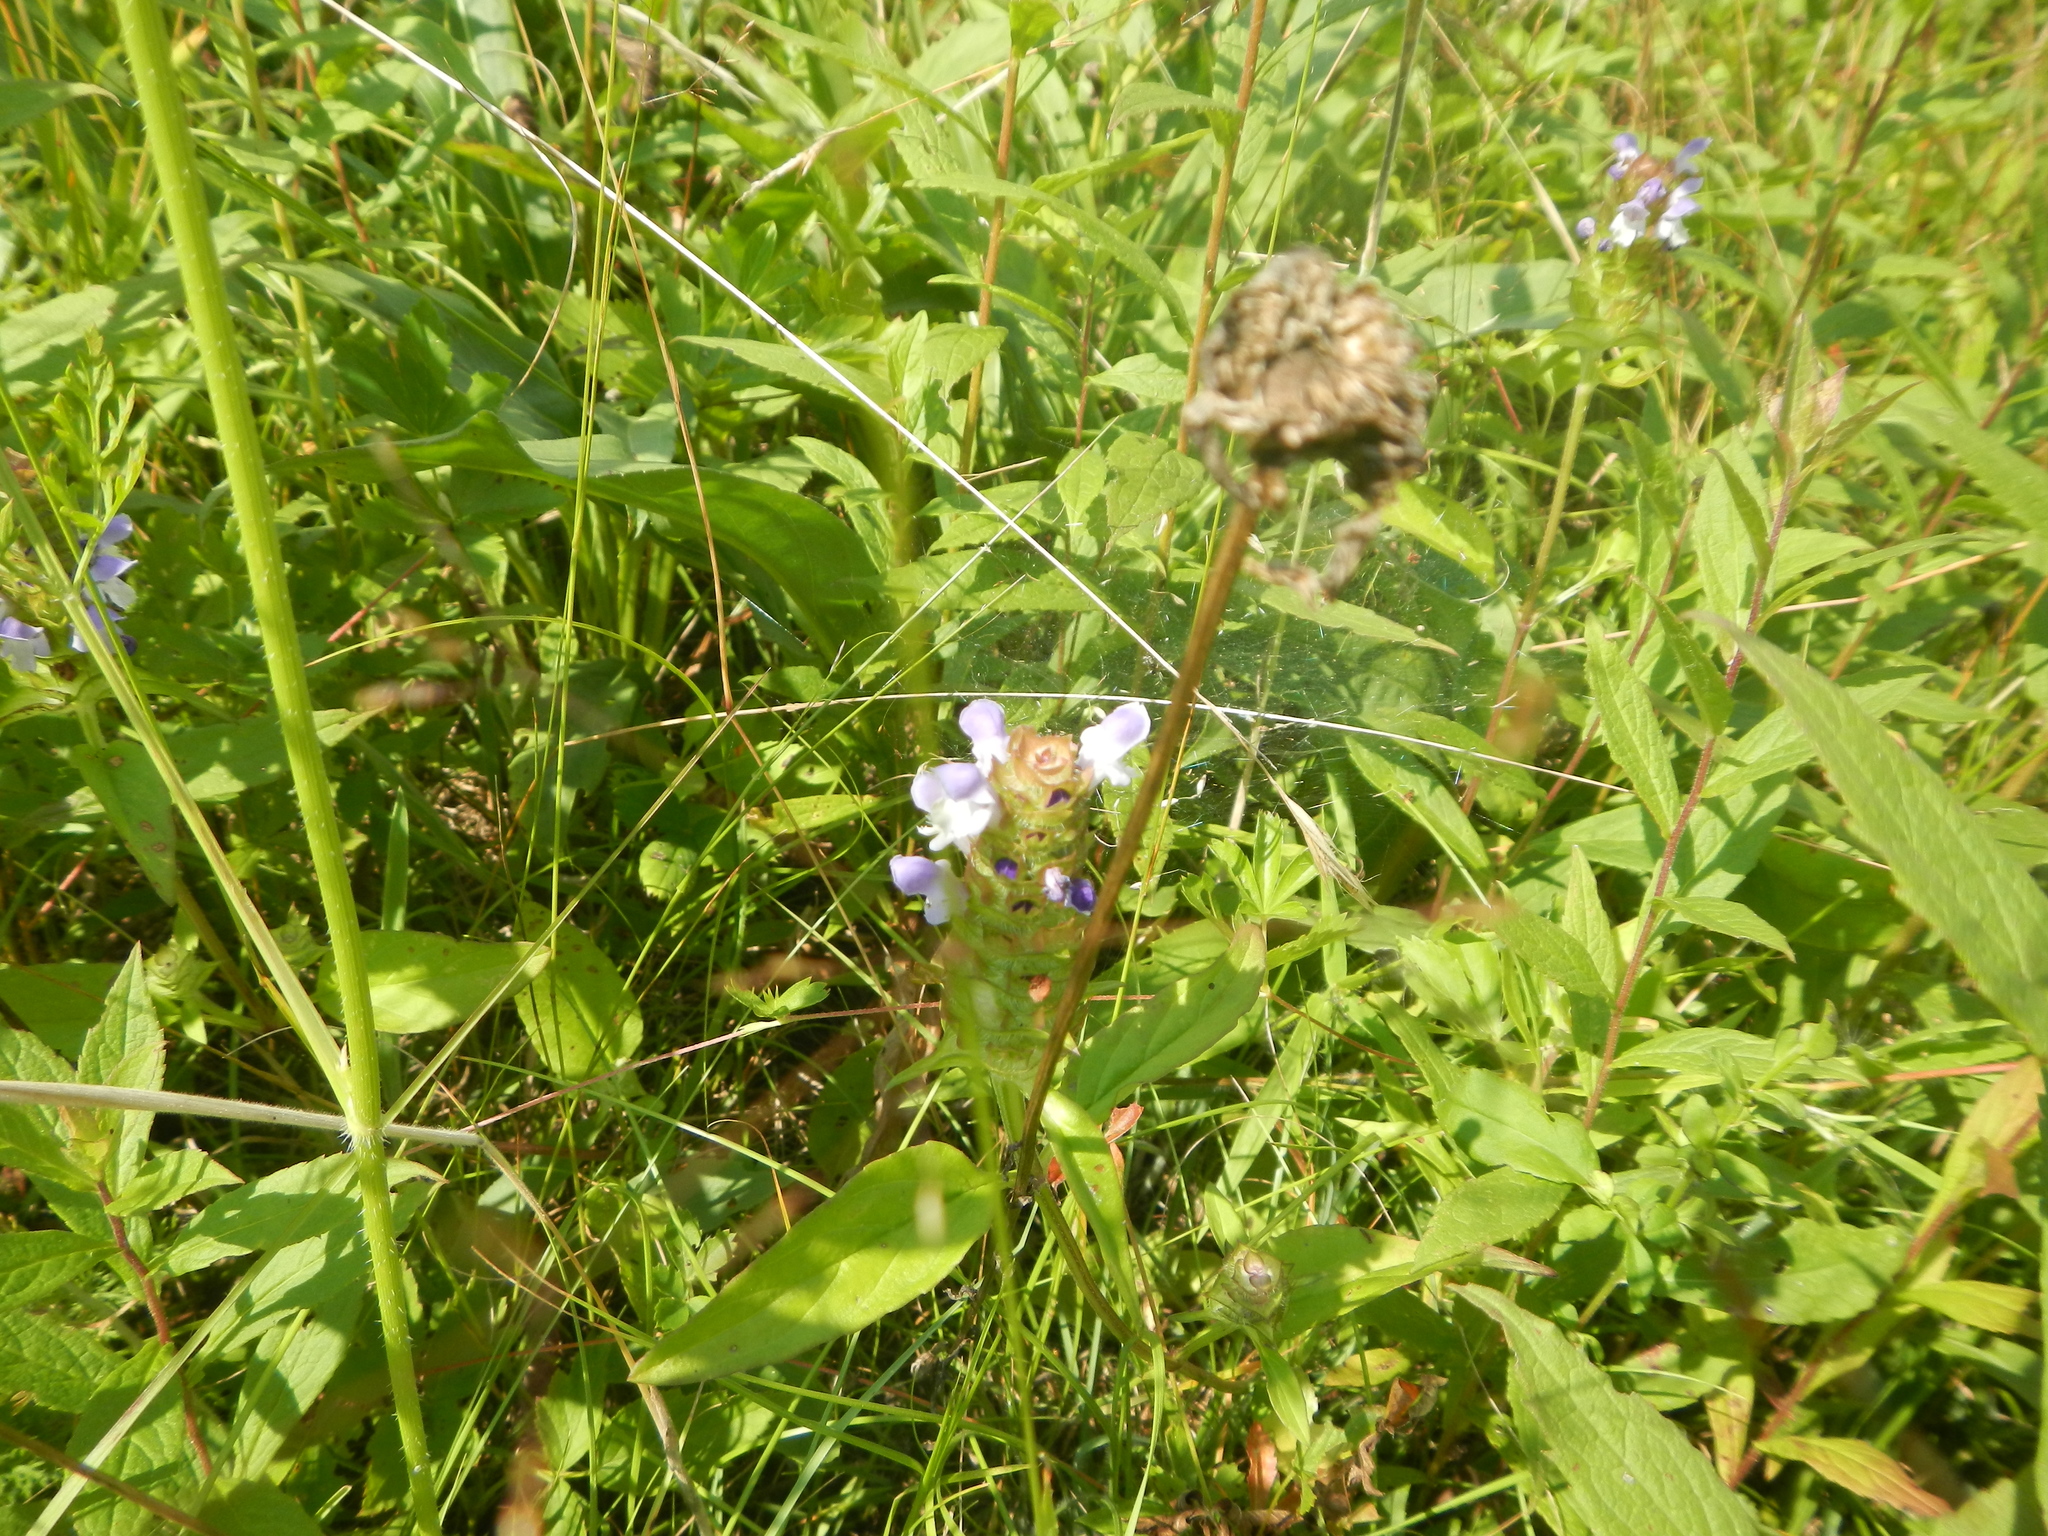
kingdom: Plantae
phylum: Tracheophyta
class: Magnoliopsida
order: Lamiales
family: Lamiaceae
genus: Prunella
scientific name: Prunella vulgaris
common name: Heal-all
